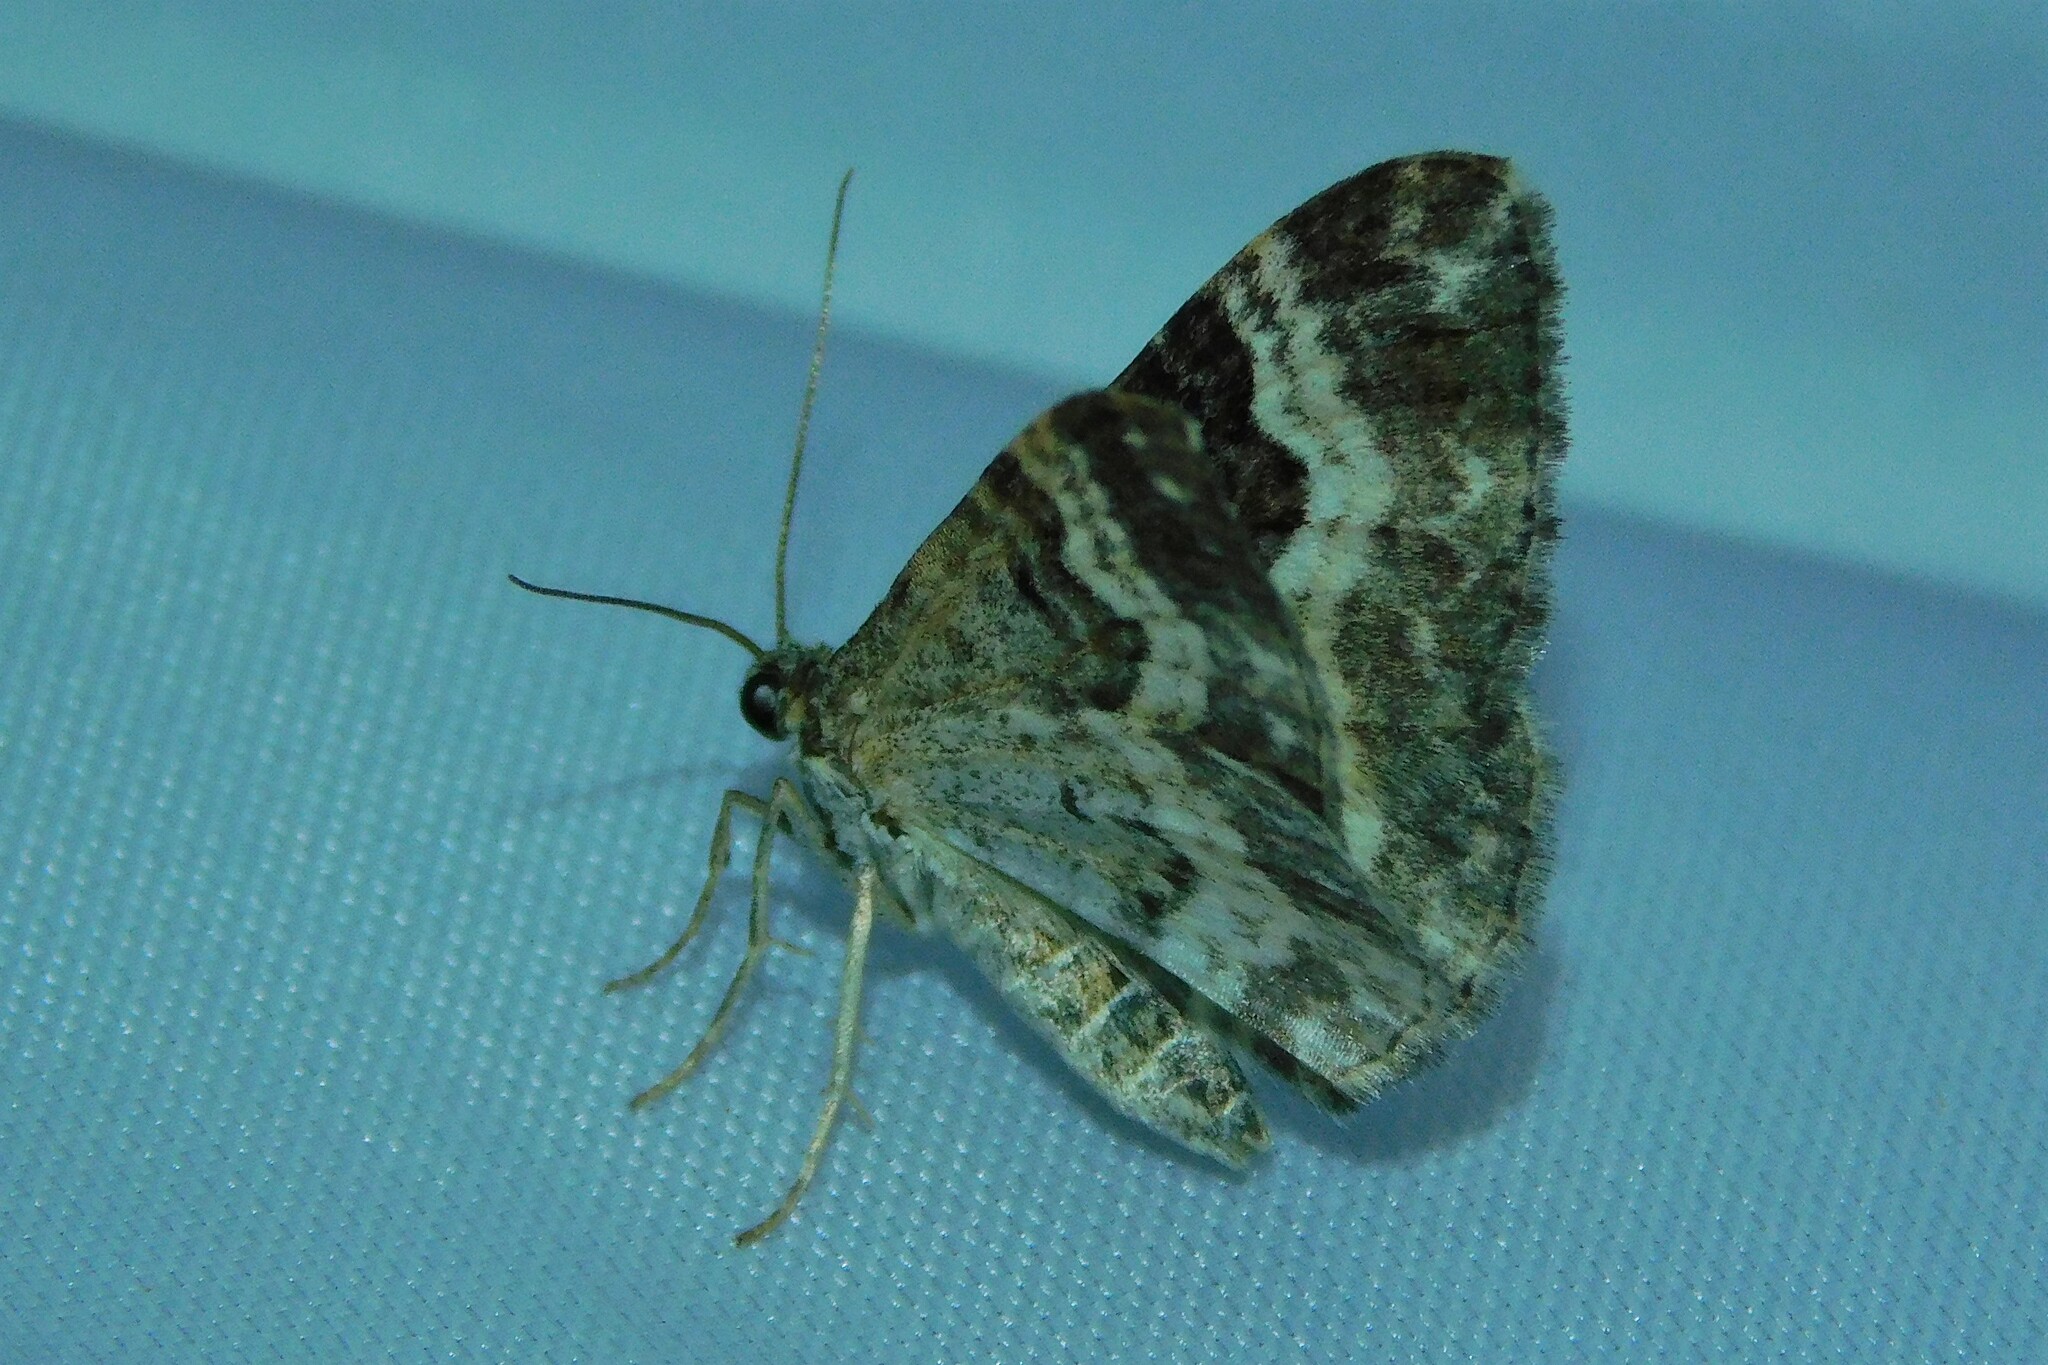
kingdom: Animalia
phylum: Arthropoda
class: Insecta
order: Lepidoptera
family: Geometridae
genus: Epirrhoe
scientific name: Epirrhoe alternata
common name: Common carpet
